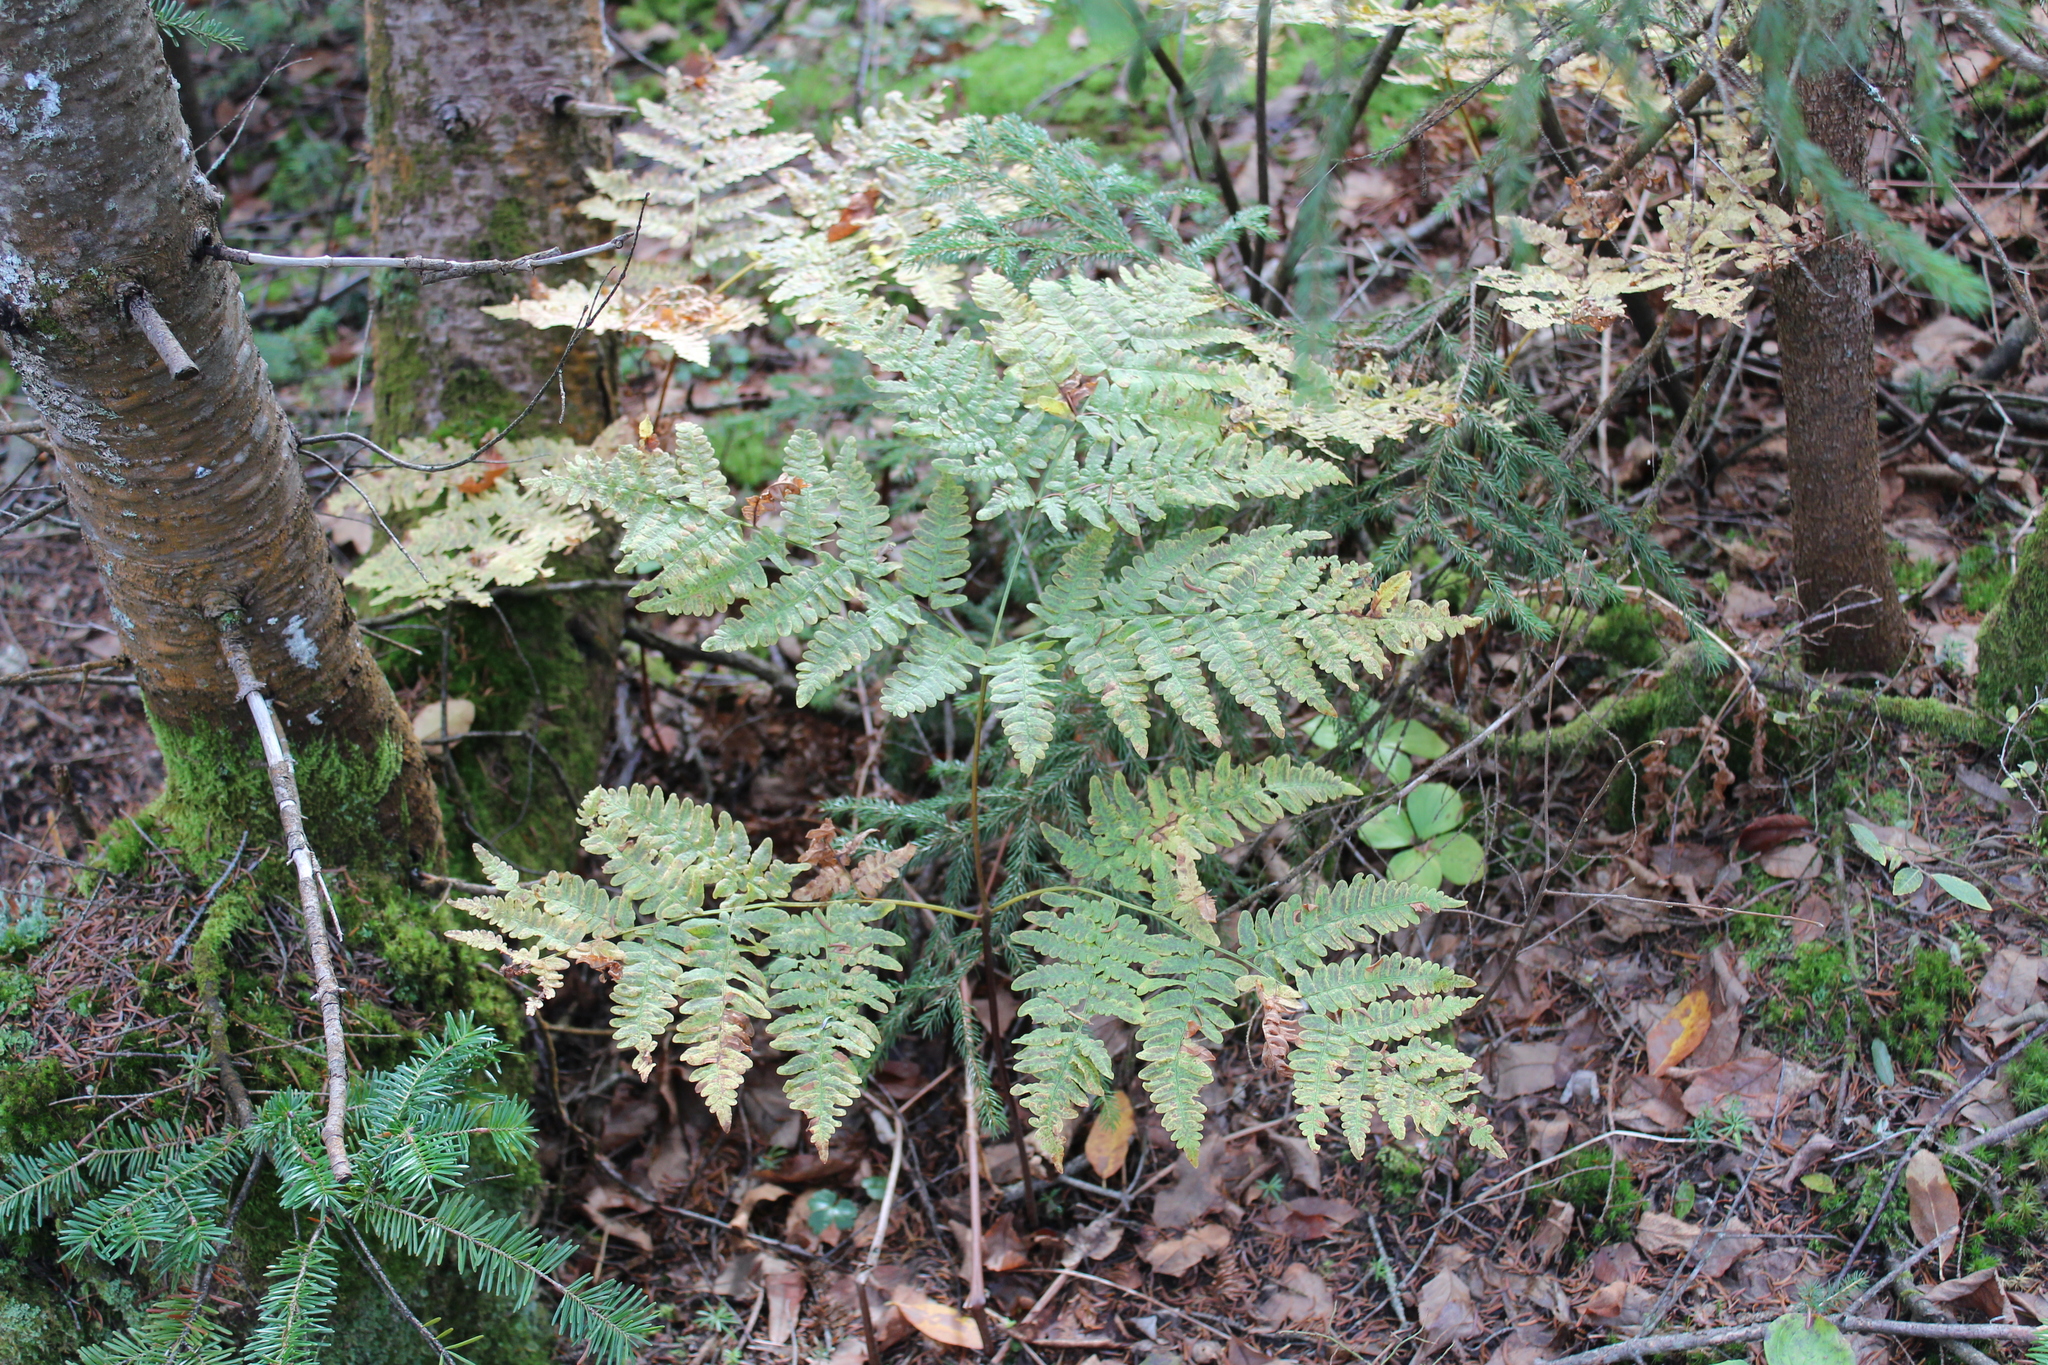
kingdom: Plantae
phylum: Tracheophyta
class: Polypodiopsida
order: Polypodiales
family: Dennstaedtiaceae
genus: Pteridium
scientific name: Pteridium aquilinum
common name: Bracken
